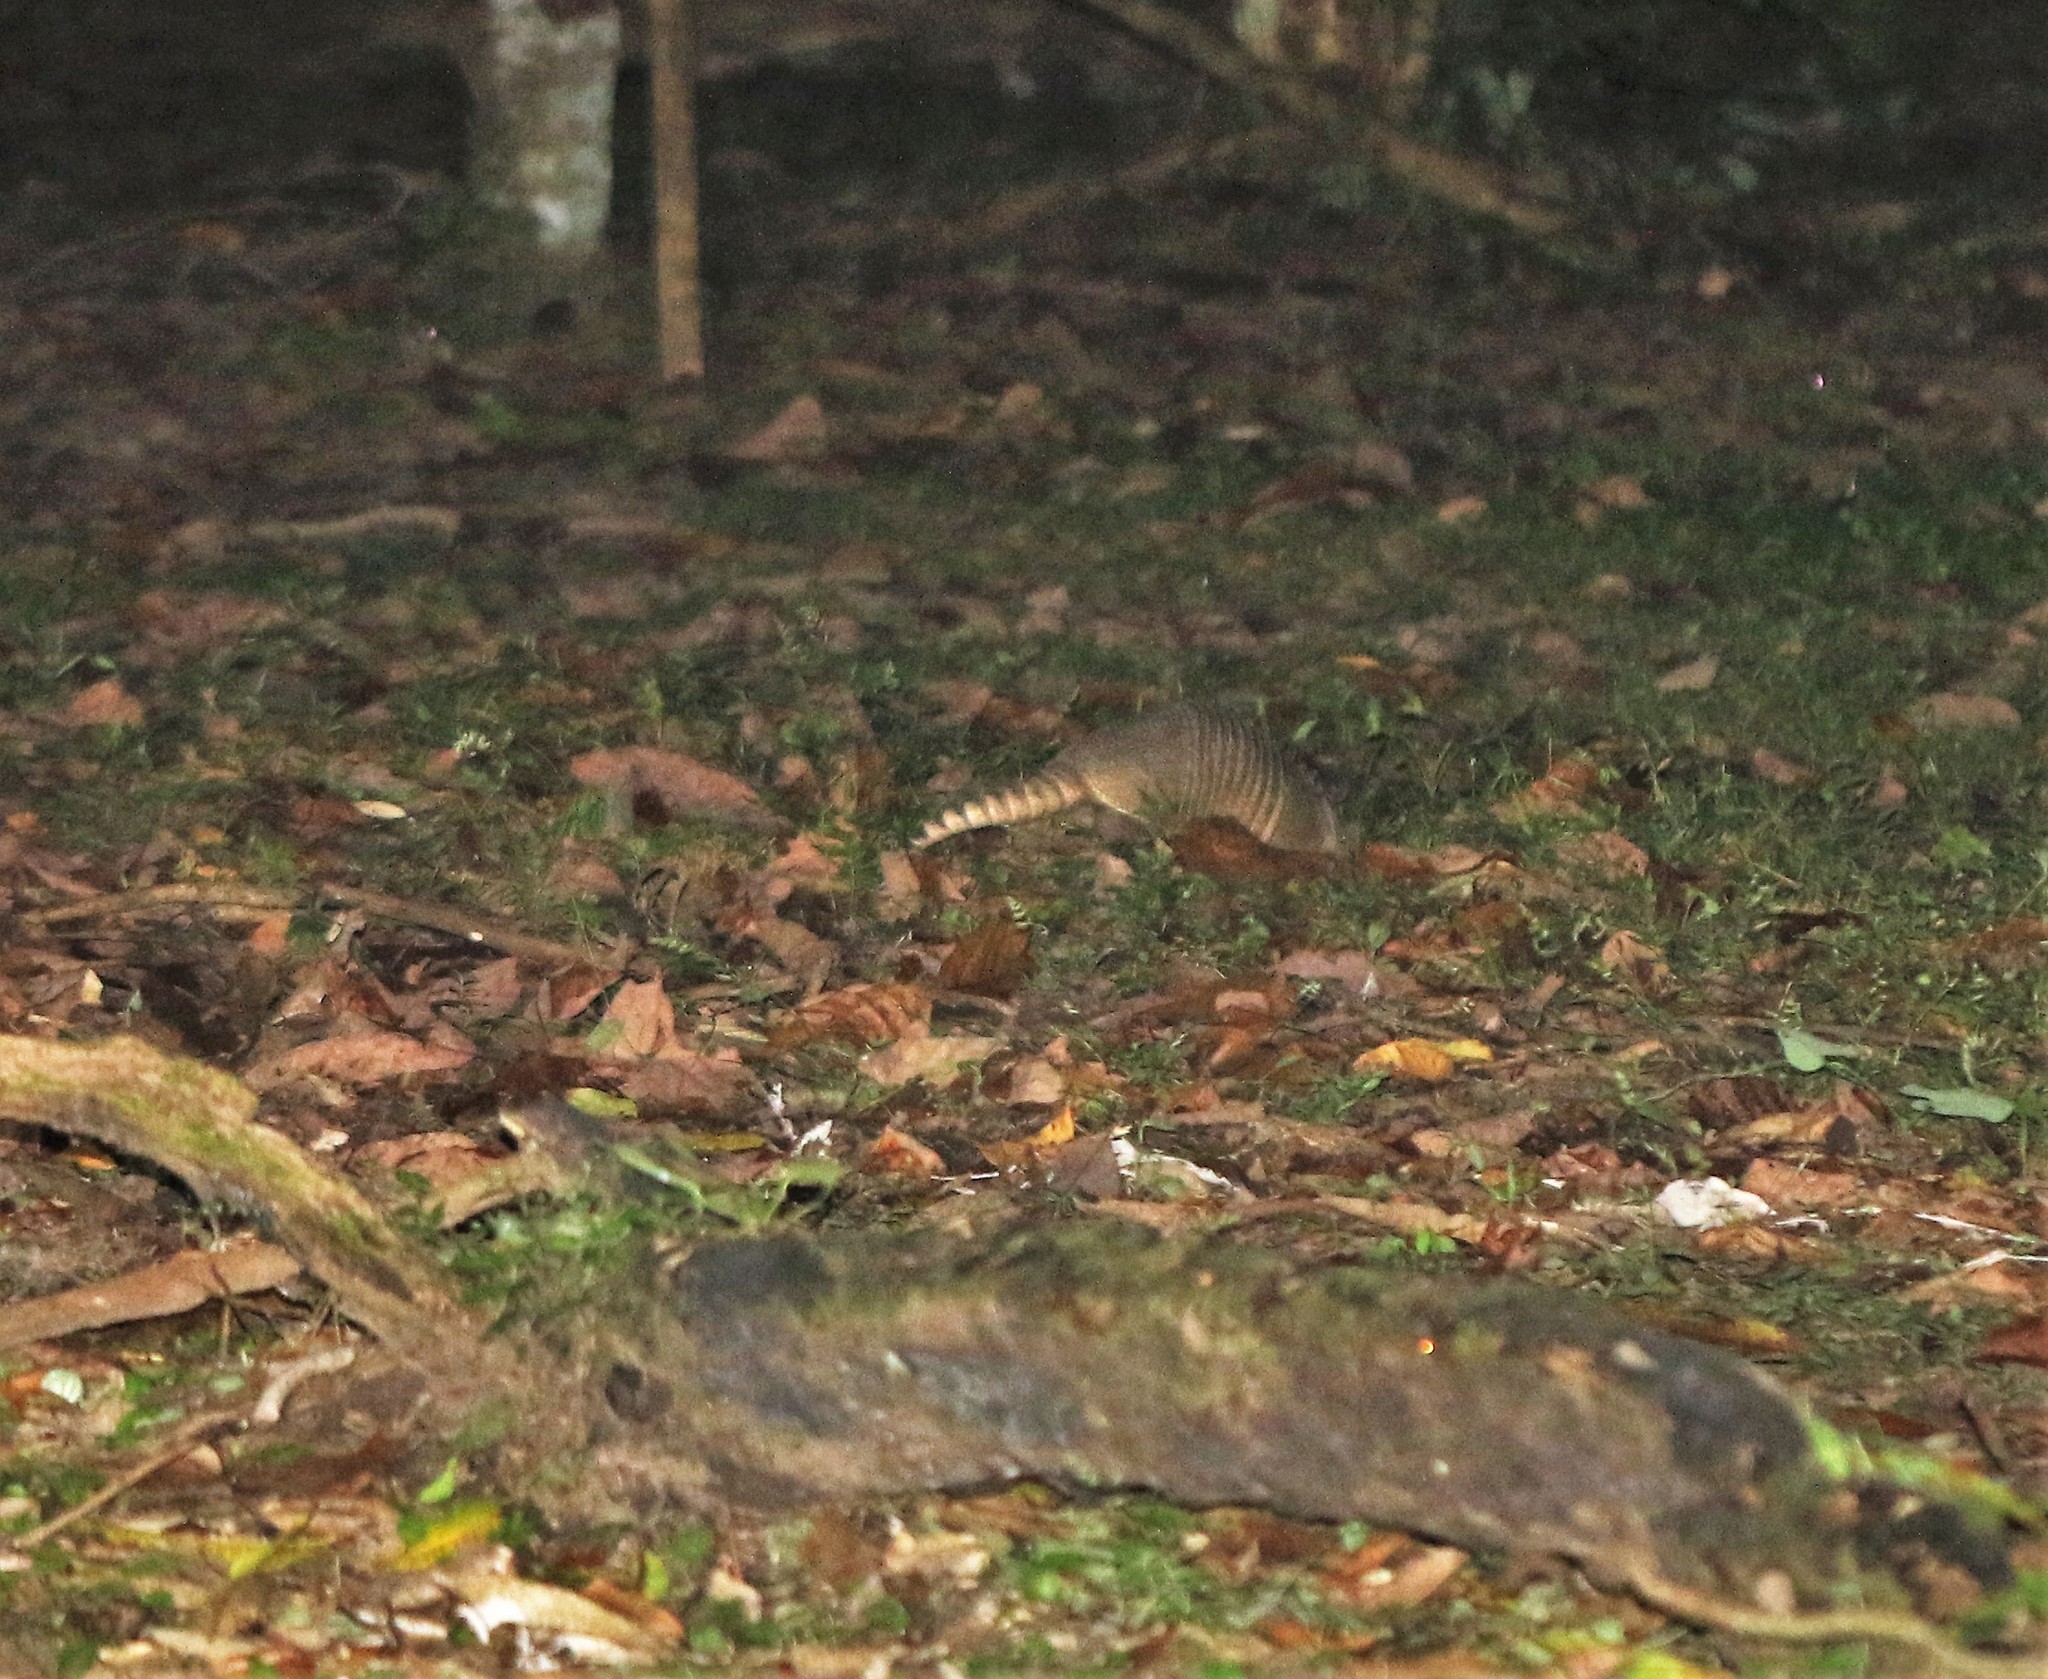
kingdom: Animalia
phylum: Chordata
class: Mammalia
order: Cingulata
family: Dasypodidae
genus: Dasypus
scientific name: Dasypus novemcinctus
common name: Nine-banded armadillo
